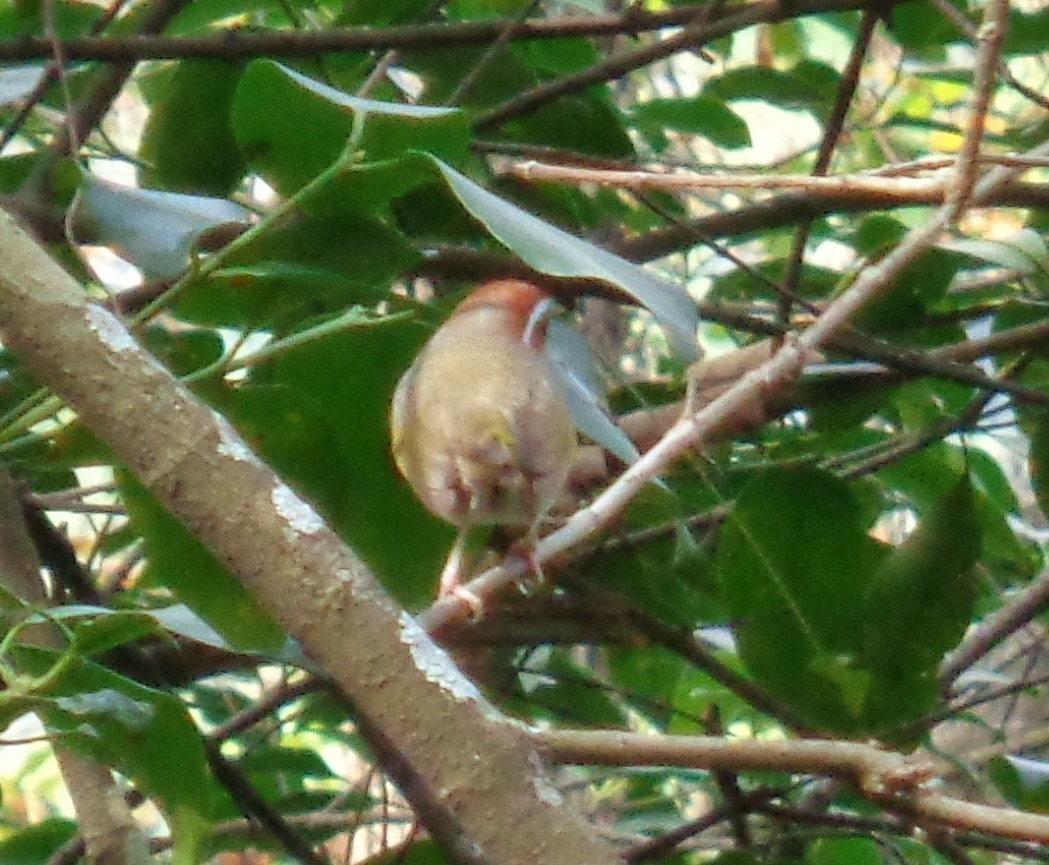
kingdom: Animalia
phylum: Chordata
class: Aves
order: Passeriformes
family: Parulidae
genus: Basileuterus
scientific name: Basileuterus rufifrons
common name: Rufous-capped warbler
